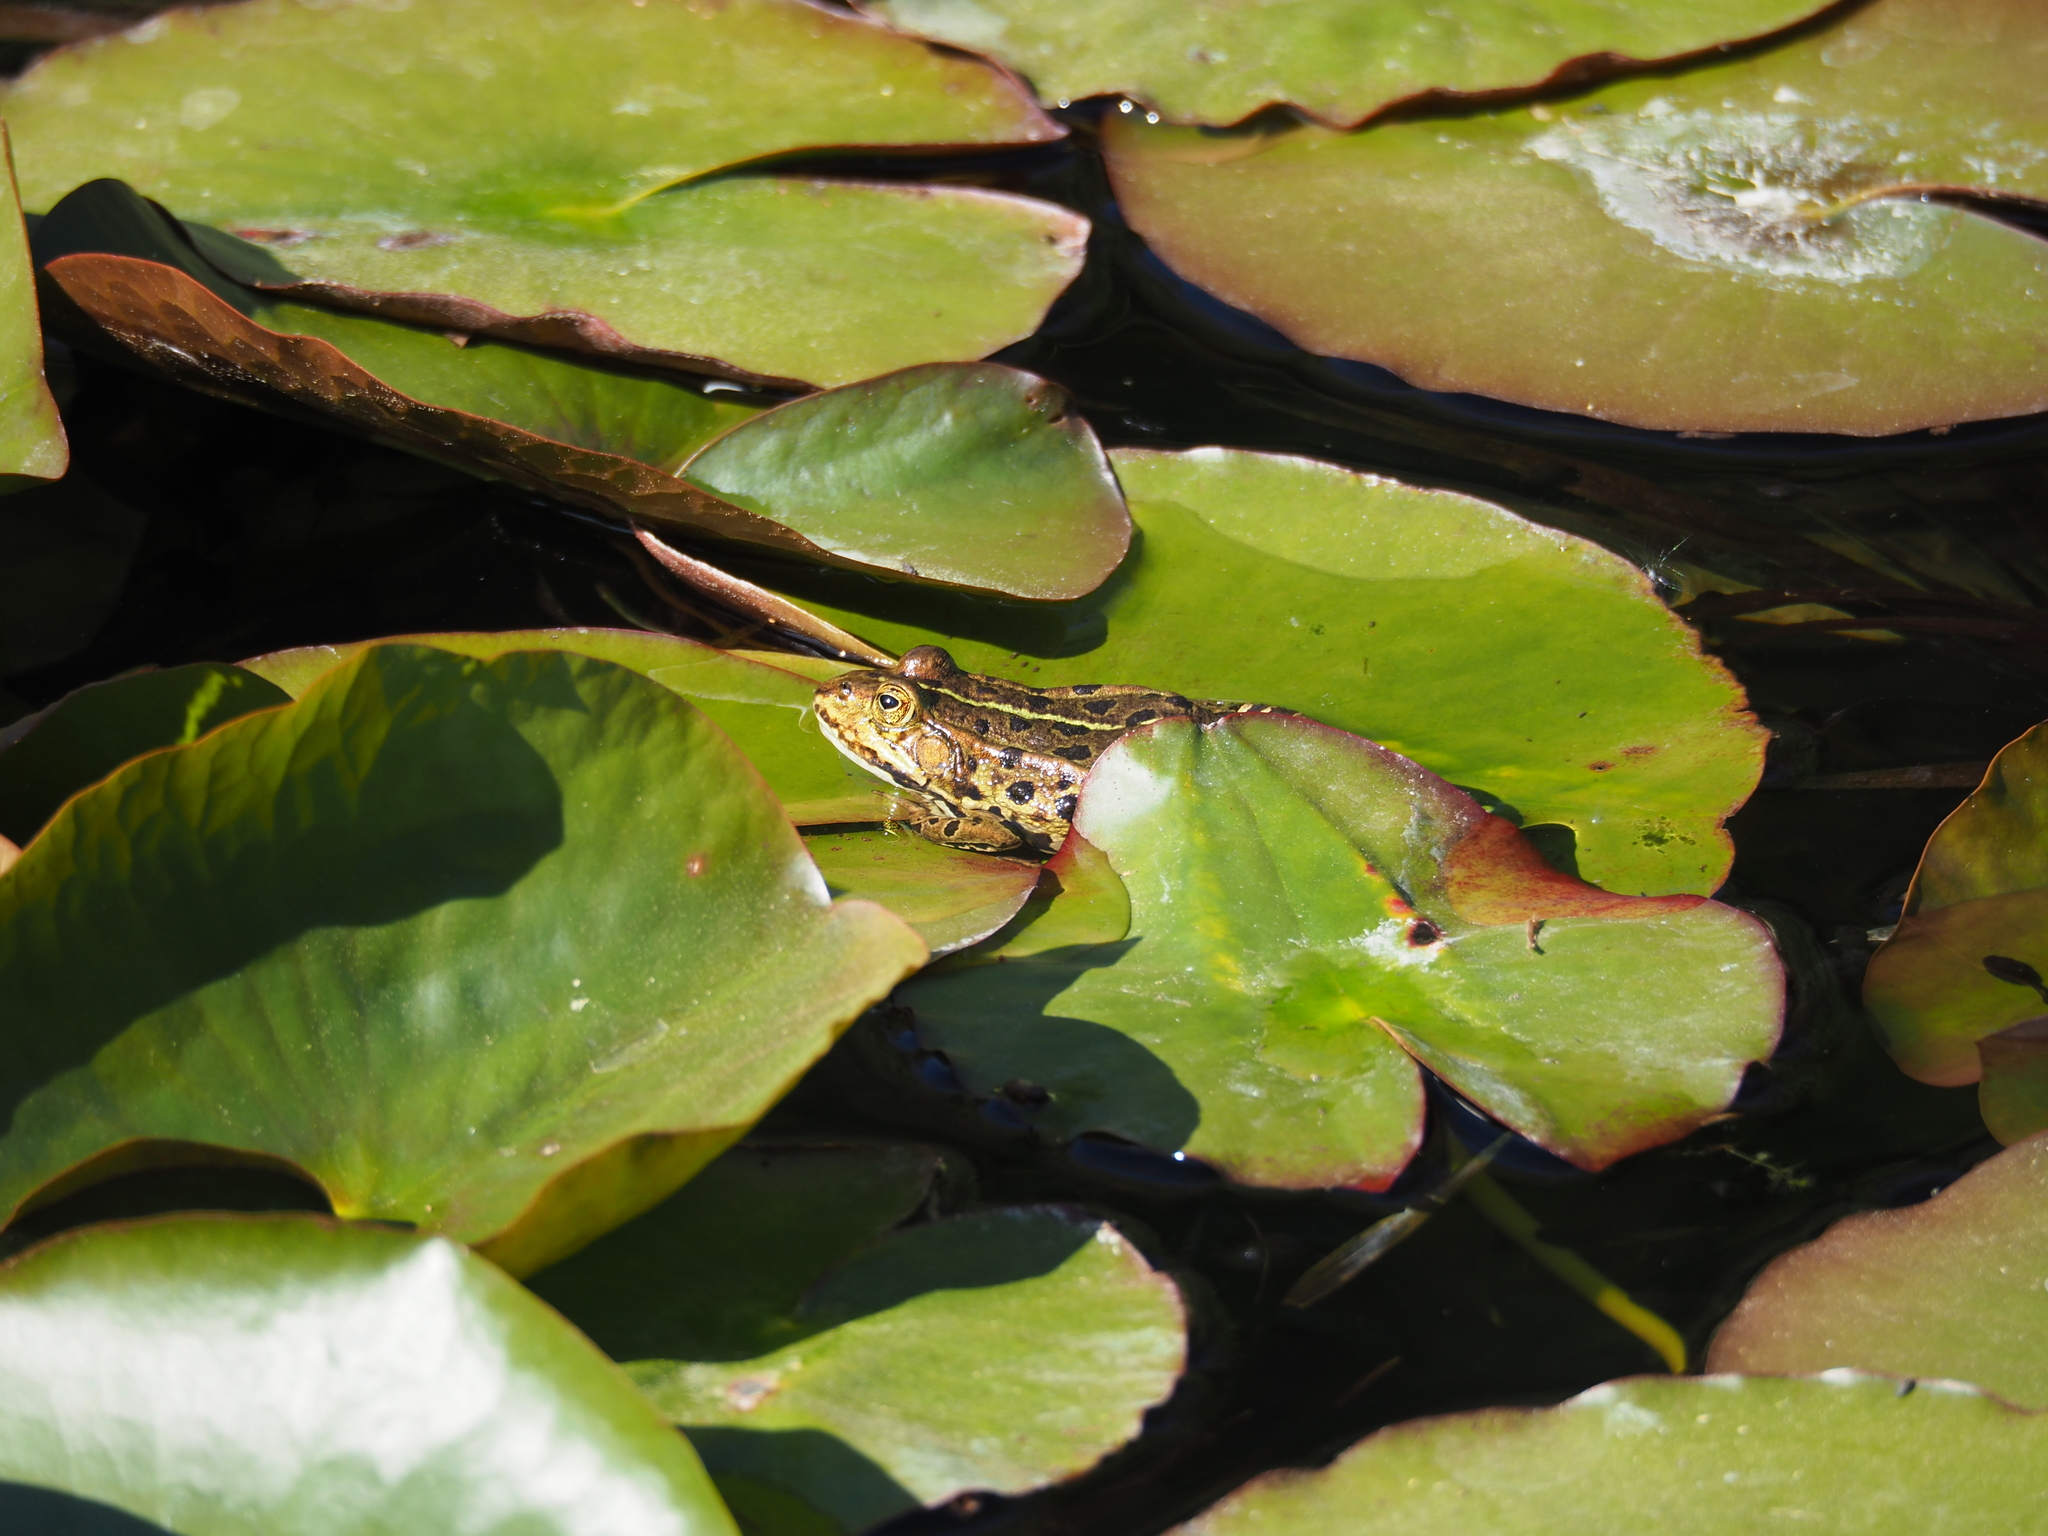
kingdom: Animalia
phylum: Chordata
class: Amphibia
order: Anura
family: Ranidae
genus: Pelophylax
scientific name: Pelophylax
